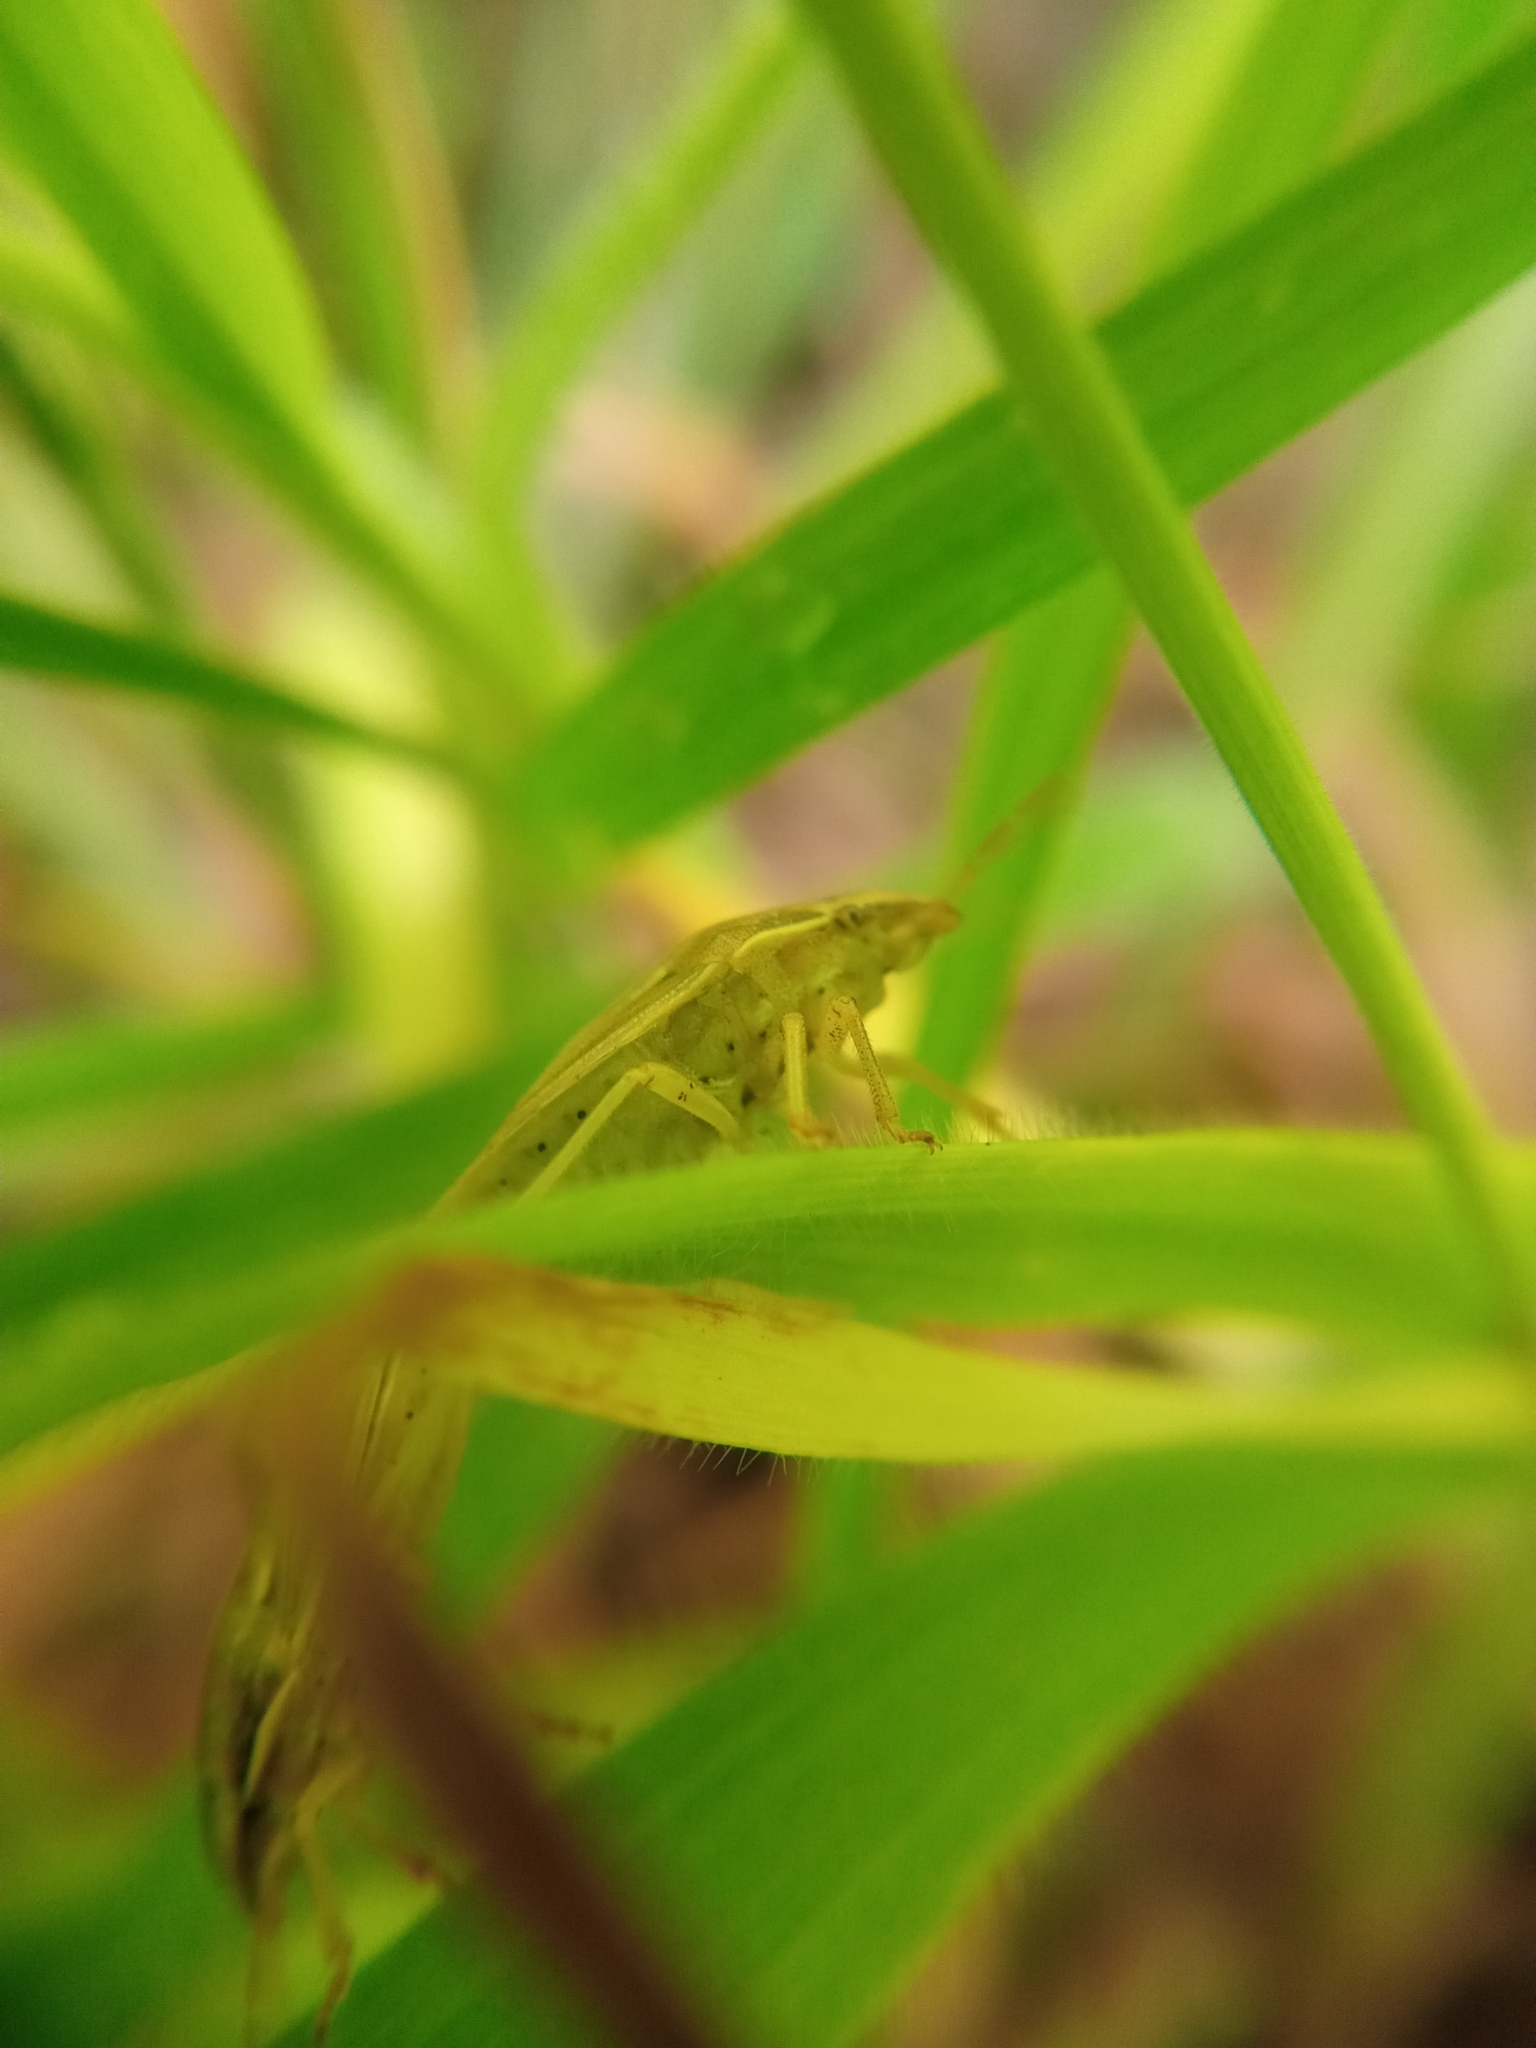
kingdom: Animalia
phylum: Arthropoda
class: Insecta
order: Hemiptera
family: Pentatomidae
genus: Aelia
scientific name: Aelia acuminata
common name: Bishop's mitre
